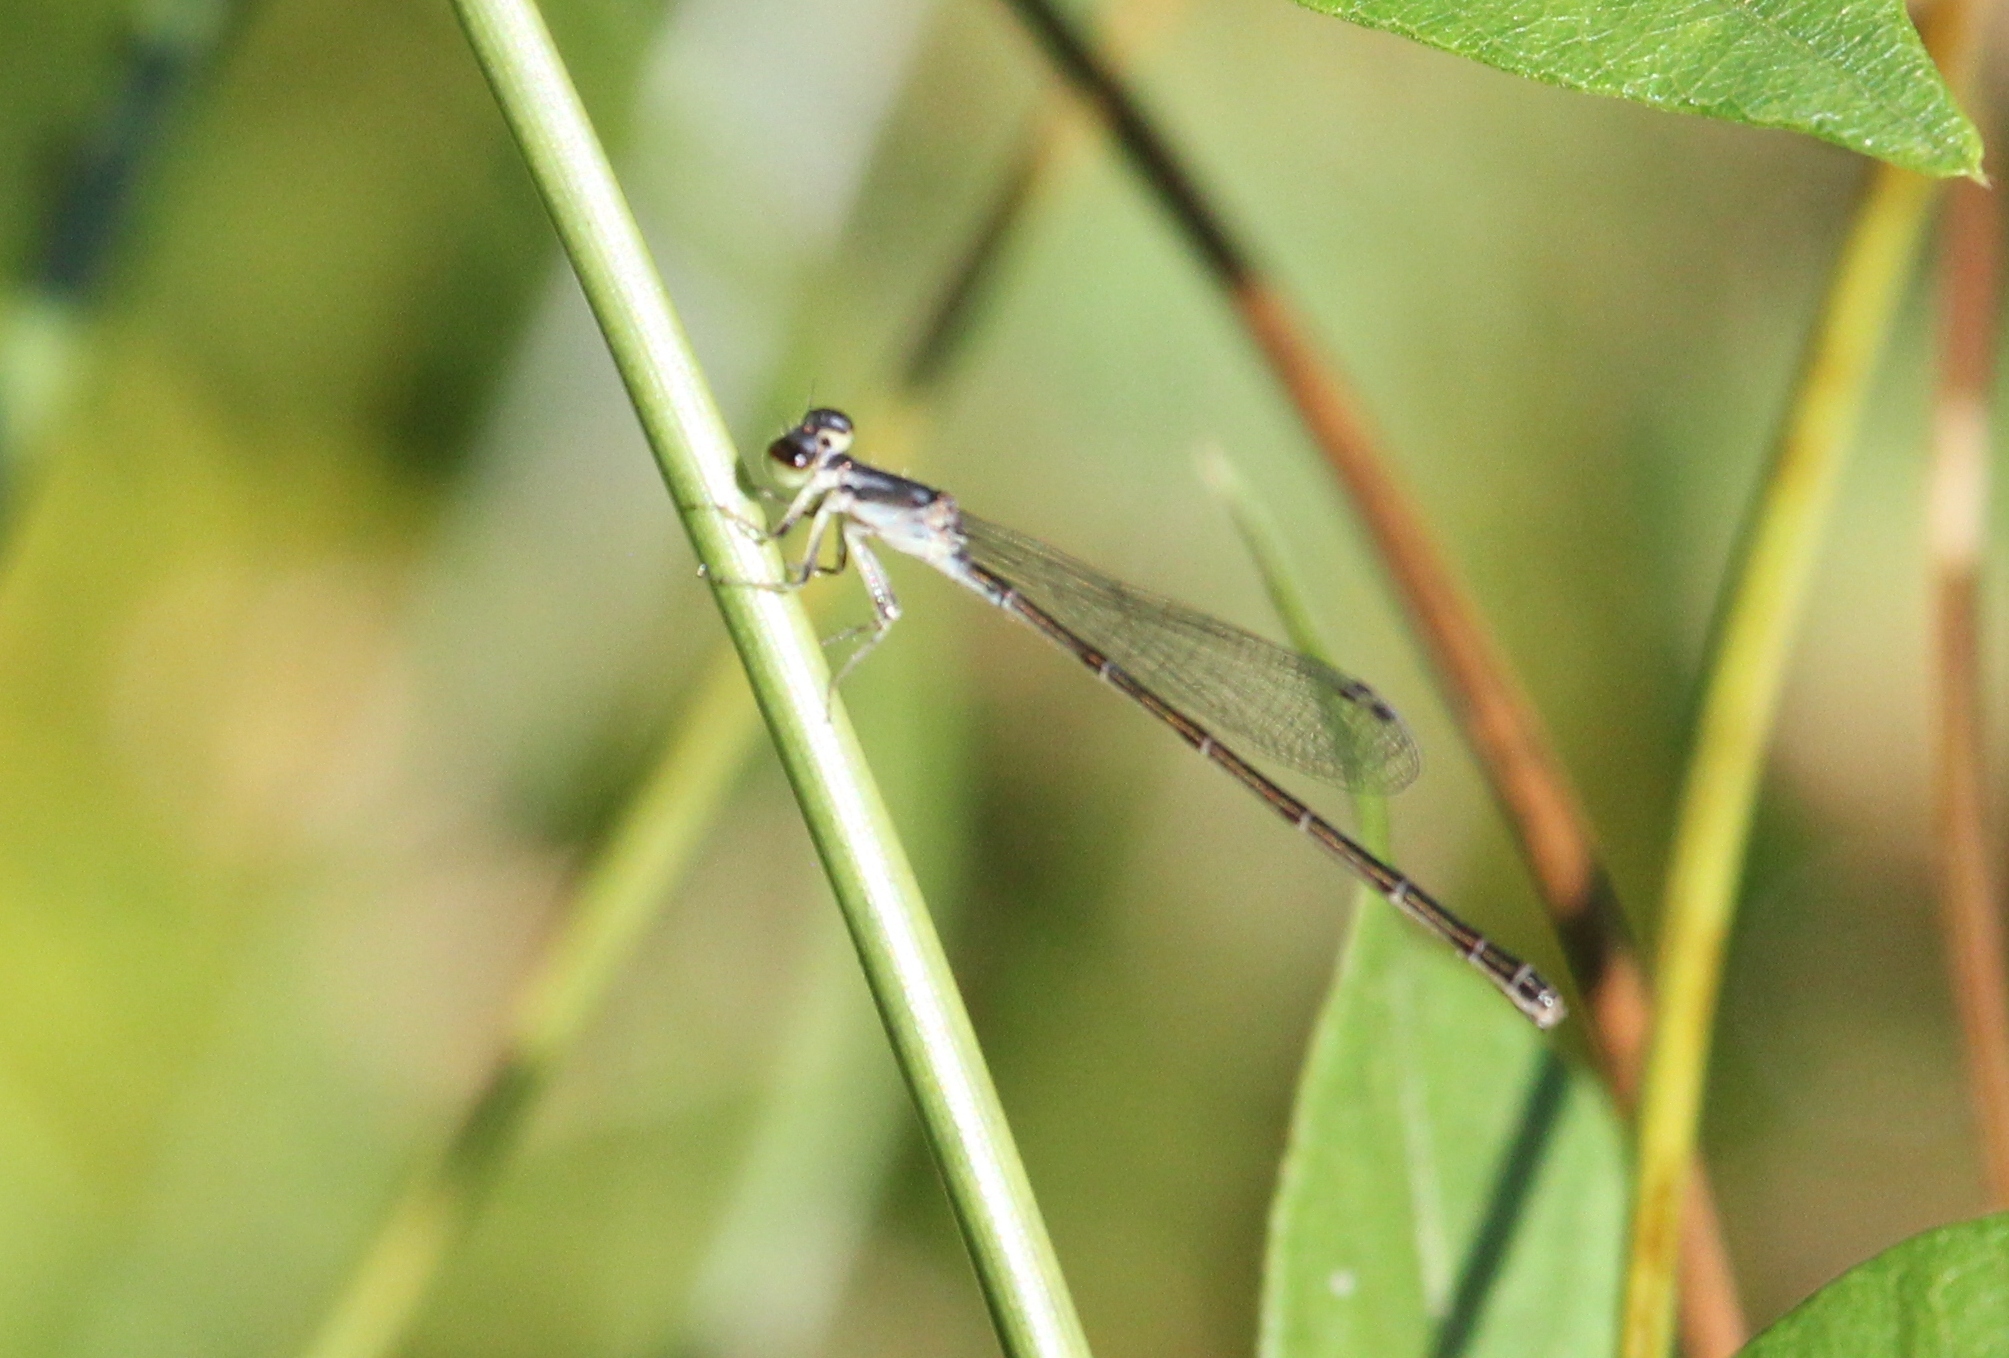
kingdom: Animalia
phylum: Arthropoda
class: Insecta
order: Odonata
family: Coenagrionidae
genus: Ischnura
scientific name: Ischnura posita
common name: Fragile forktail
